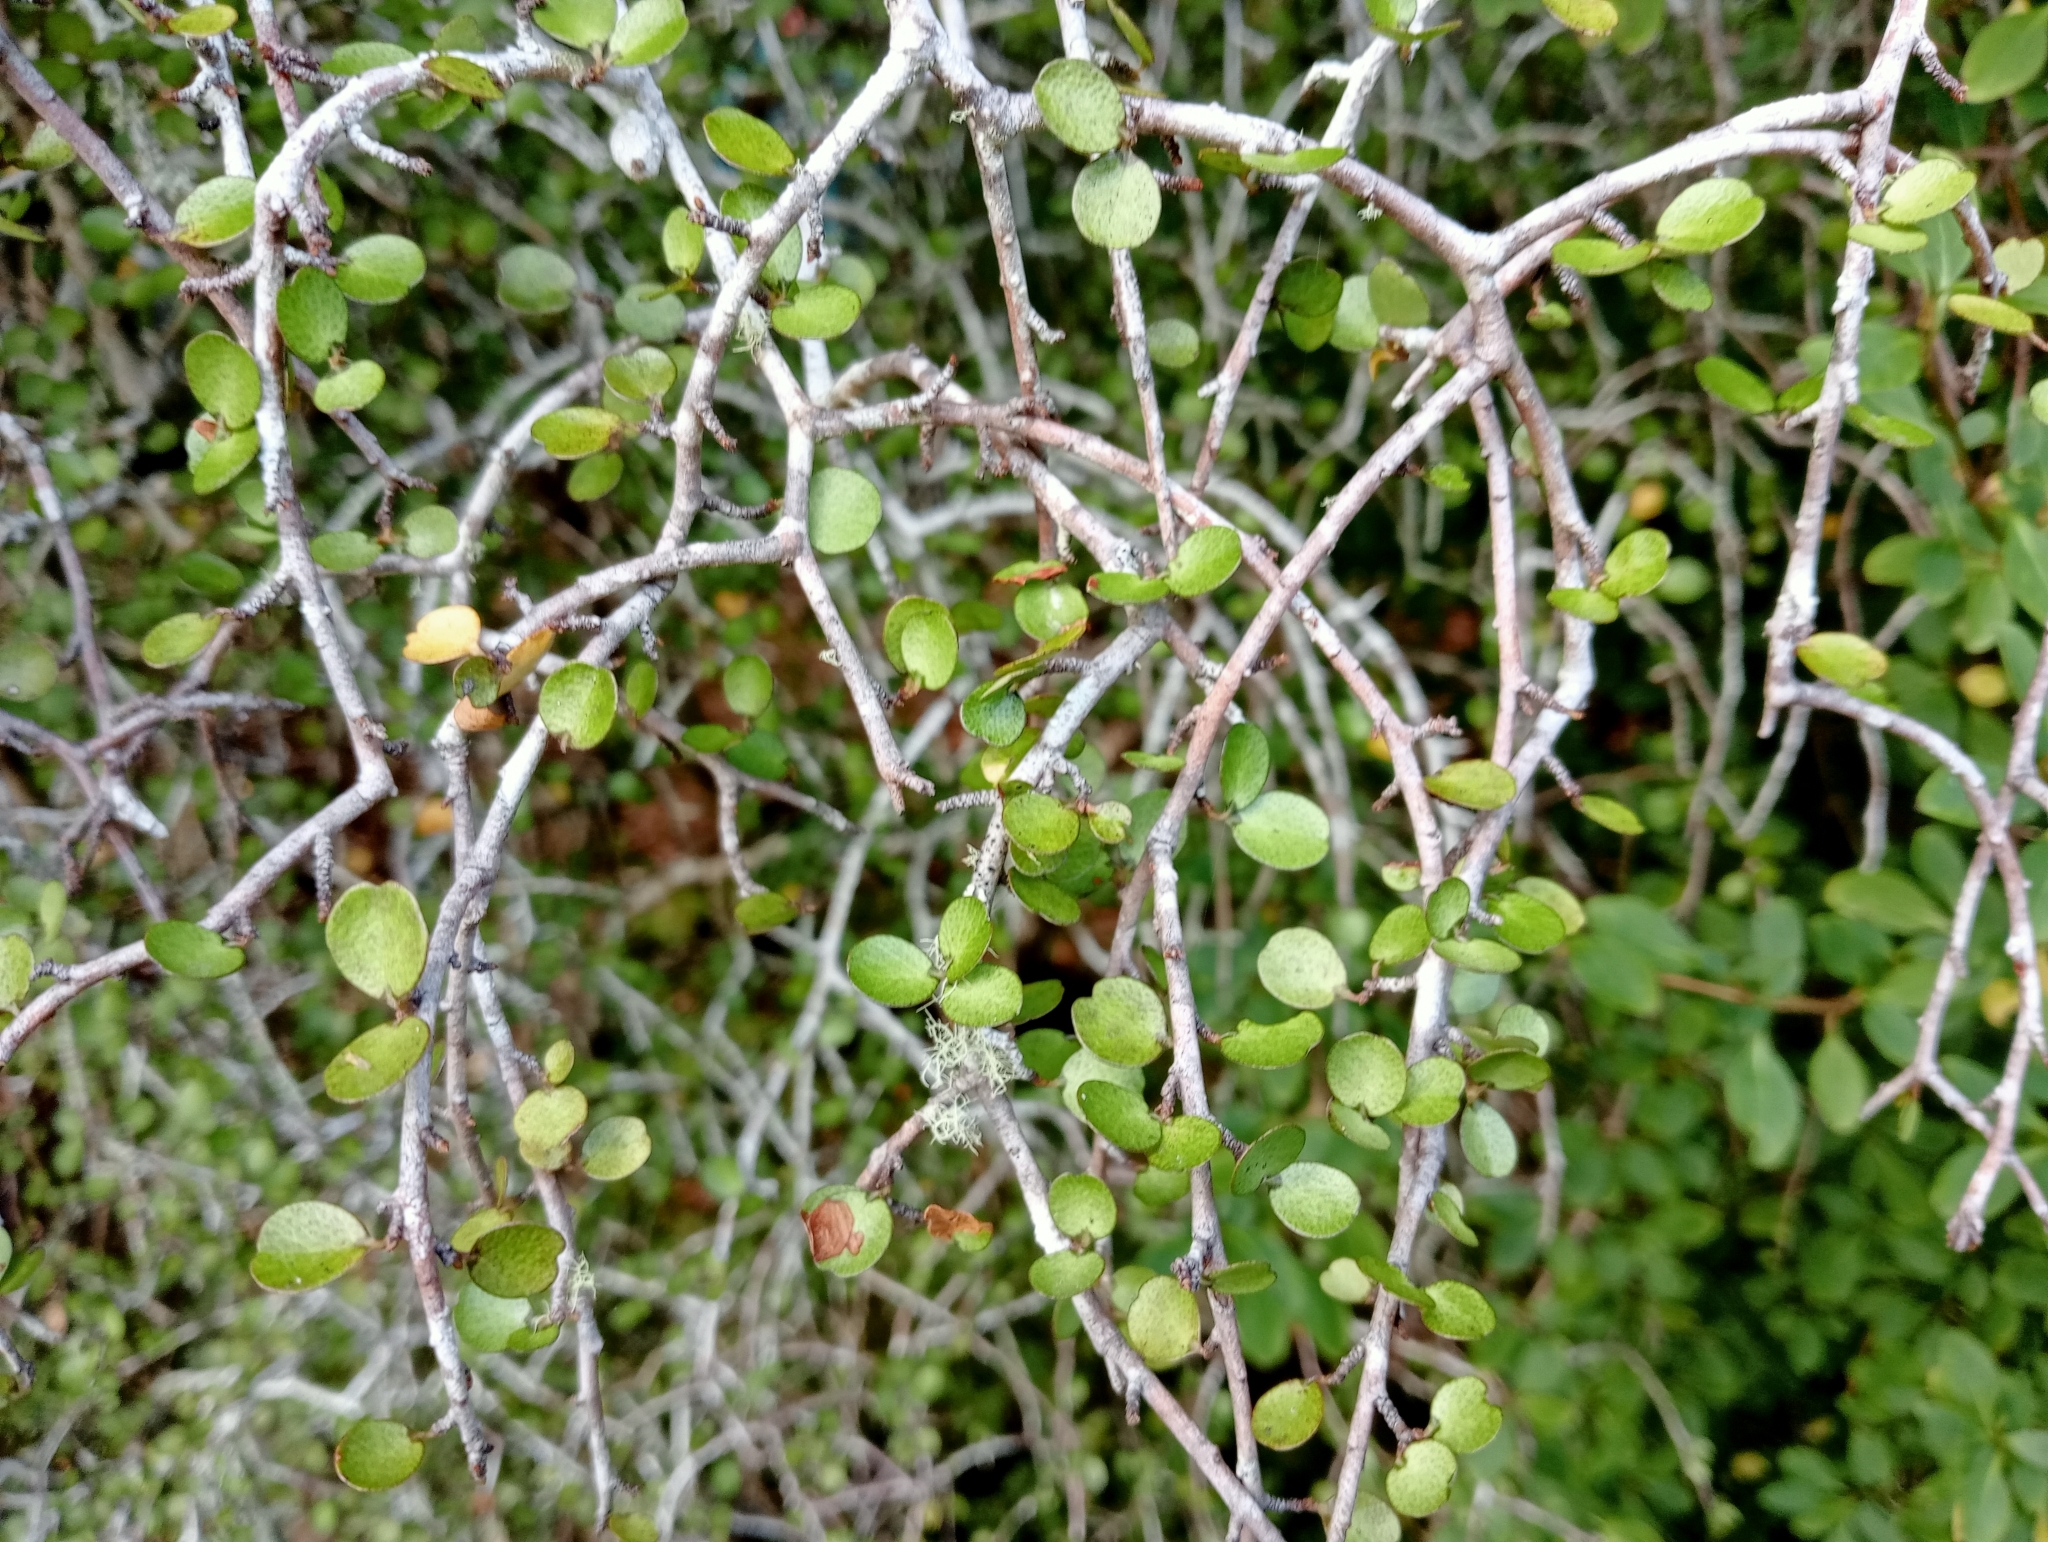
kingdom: Plantae
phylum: Tracheophyta
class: Magnoliopsida
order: Ericales
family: Primulaceae
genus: Myrsine
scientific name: Myrsine divaricata
